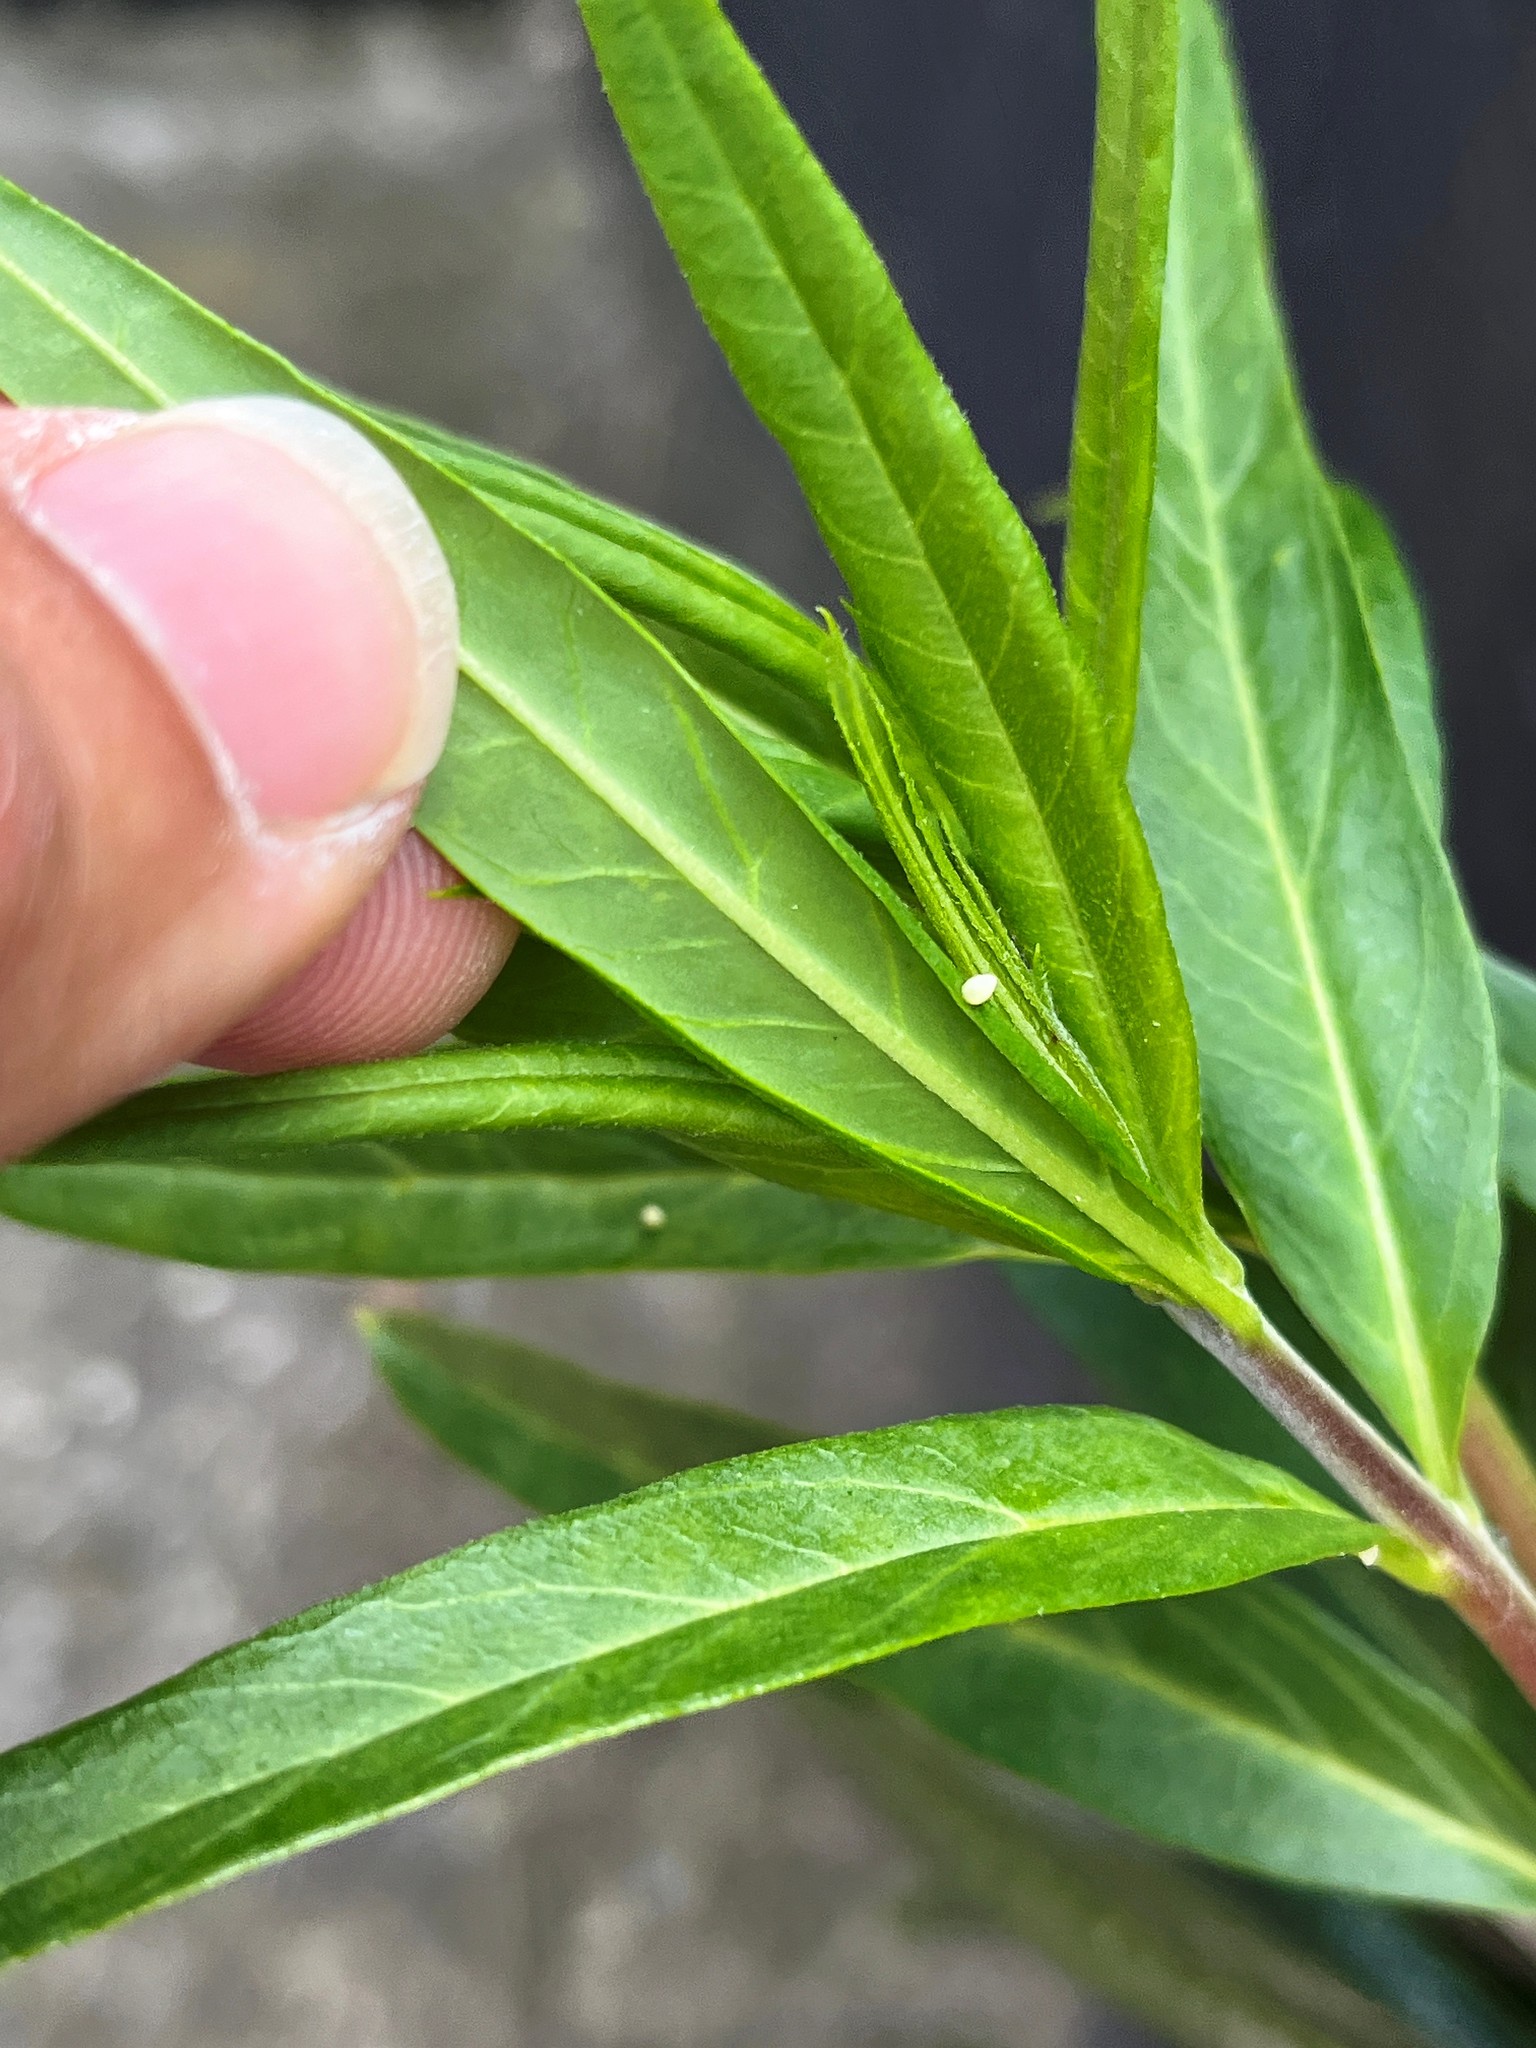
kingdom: Animalia
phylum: Arthropoda
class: Insecta
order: Lepidoptera
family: Nymphalidae
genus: Danaus
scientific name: Danaus plexippus
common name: Monarch
